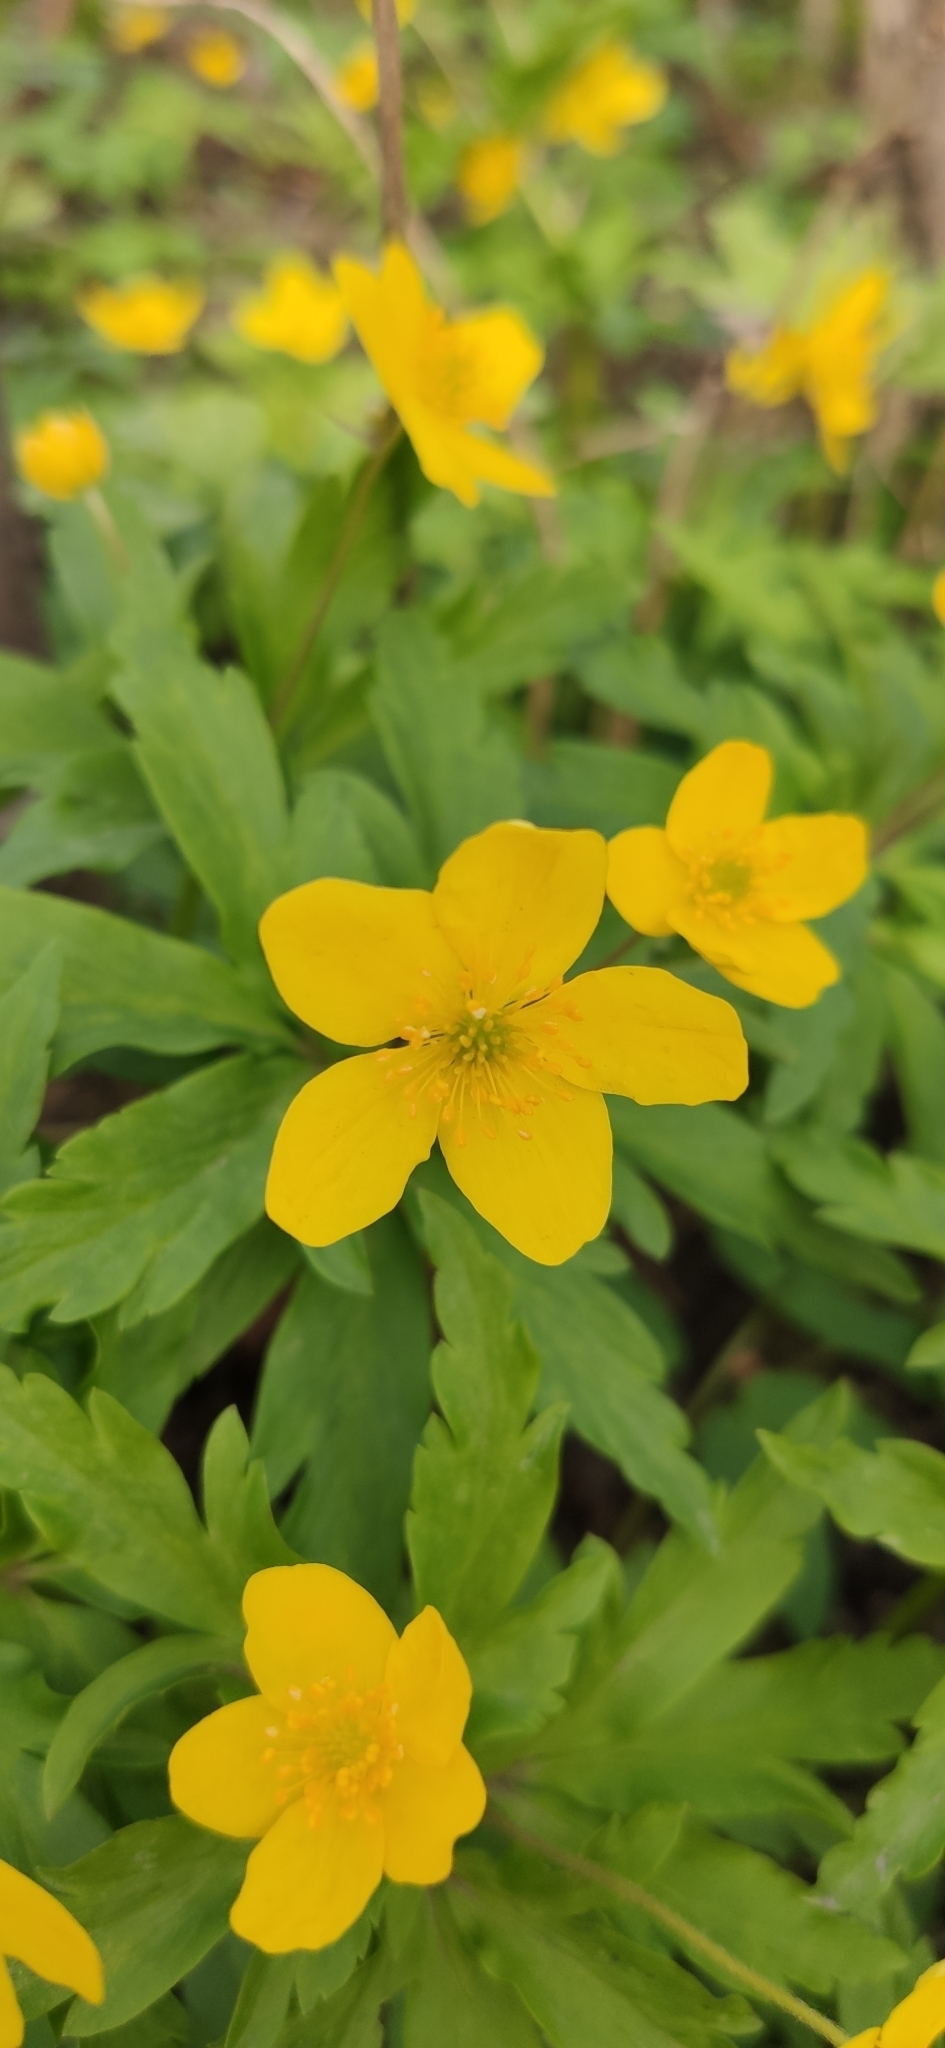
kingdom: Plantae
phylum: Tracheophyta
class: Magnoliopsida
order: Ranunculales
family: Ranunculaceae
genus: Anemone
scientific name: Anemone ranunculoides
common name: Yellow anemone
